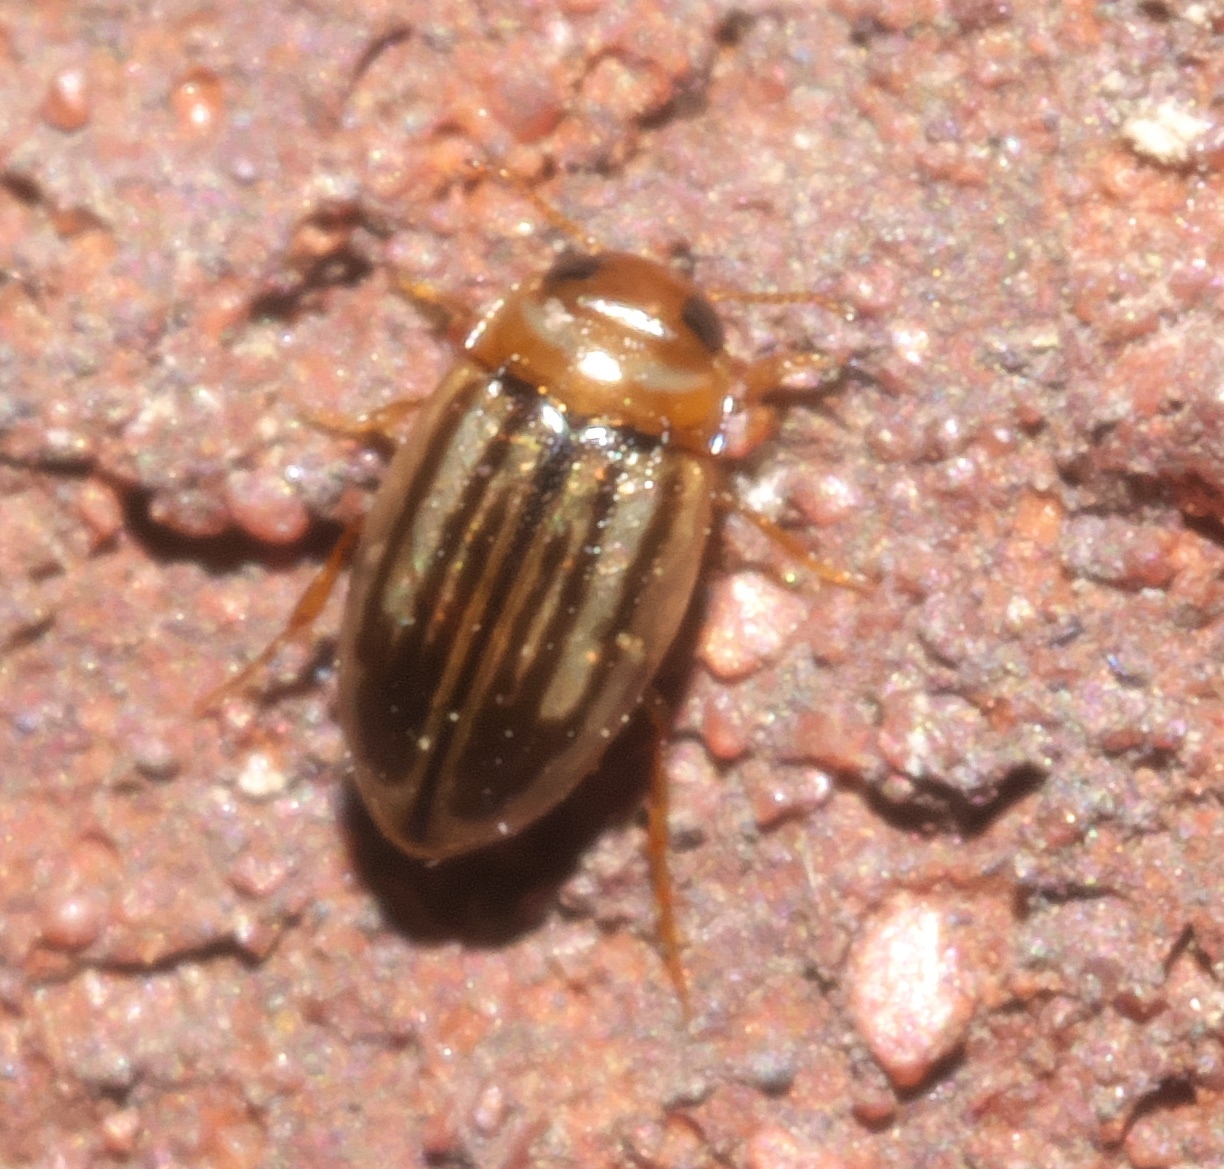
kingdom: Animalia
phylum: Arthropoda
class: Insecta
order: Coleoptera
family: Dytiscidae
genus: Neobidessus
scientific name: Neobidessus pullus
